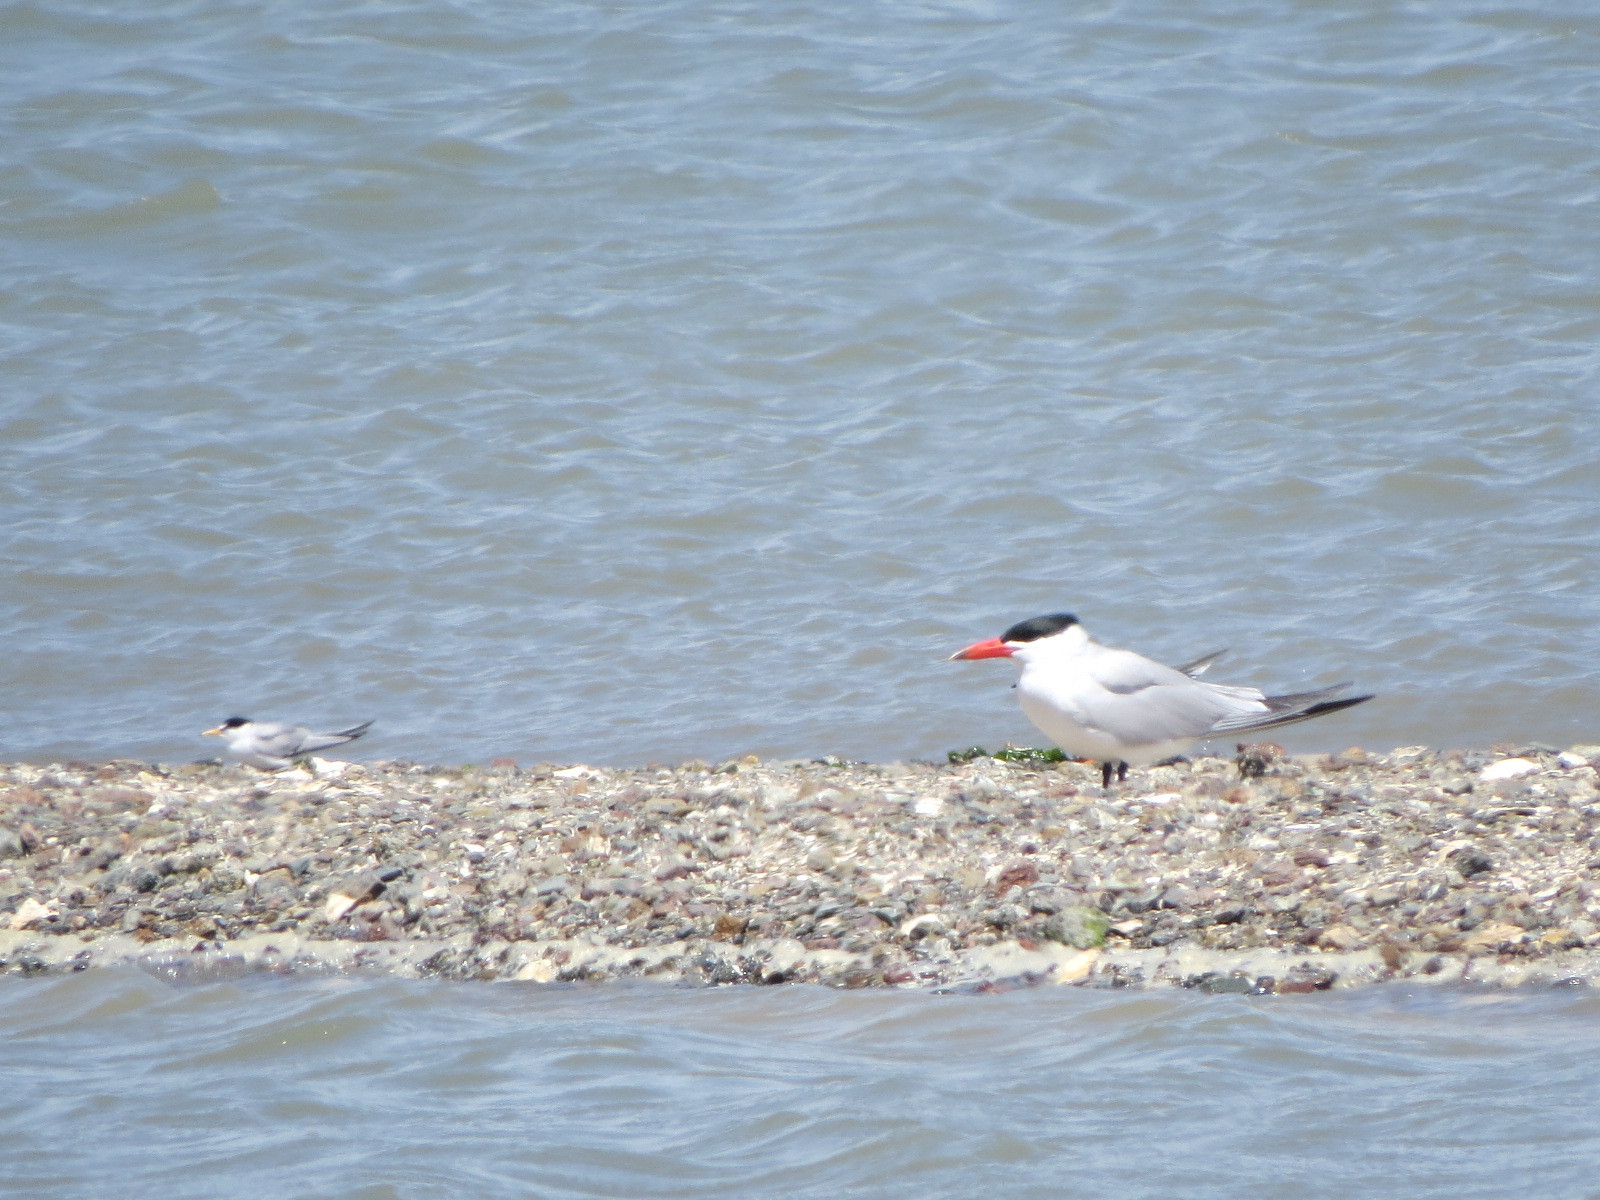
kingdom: Animalia
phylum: Chordata
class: Aves
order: Charadriiformes
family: Laridae
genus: Hydroprogne
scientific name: Hydroprogne caspia
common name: Caspian tern
